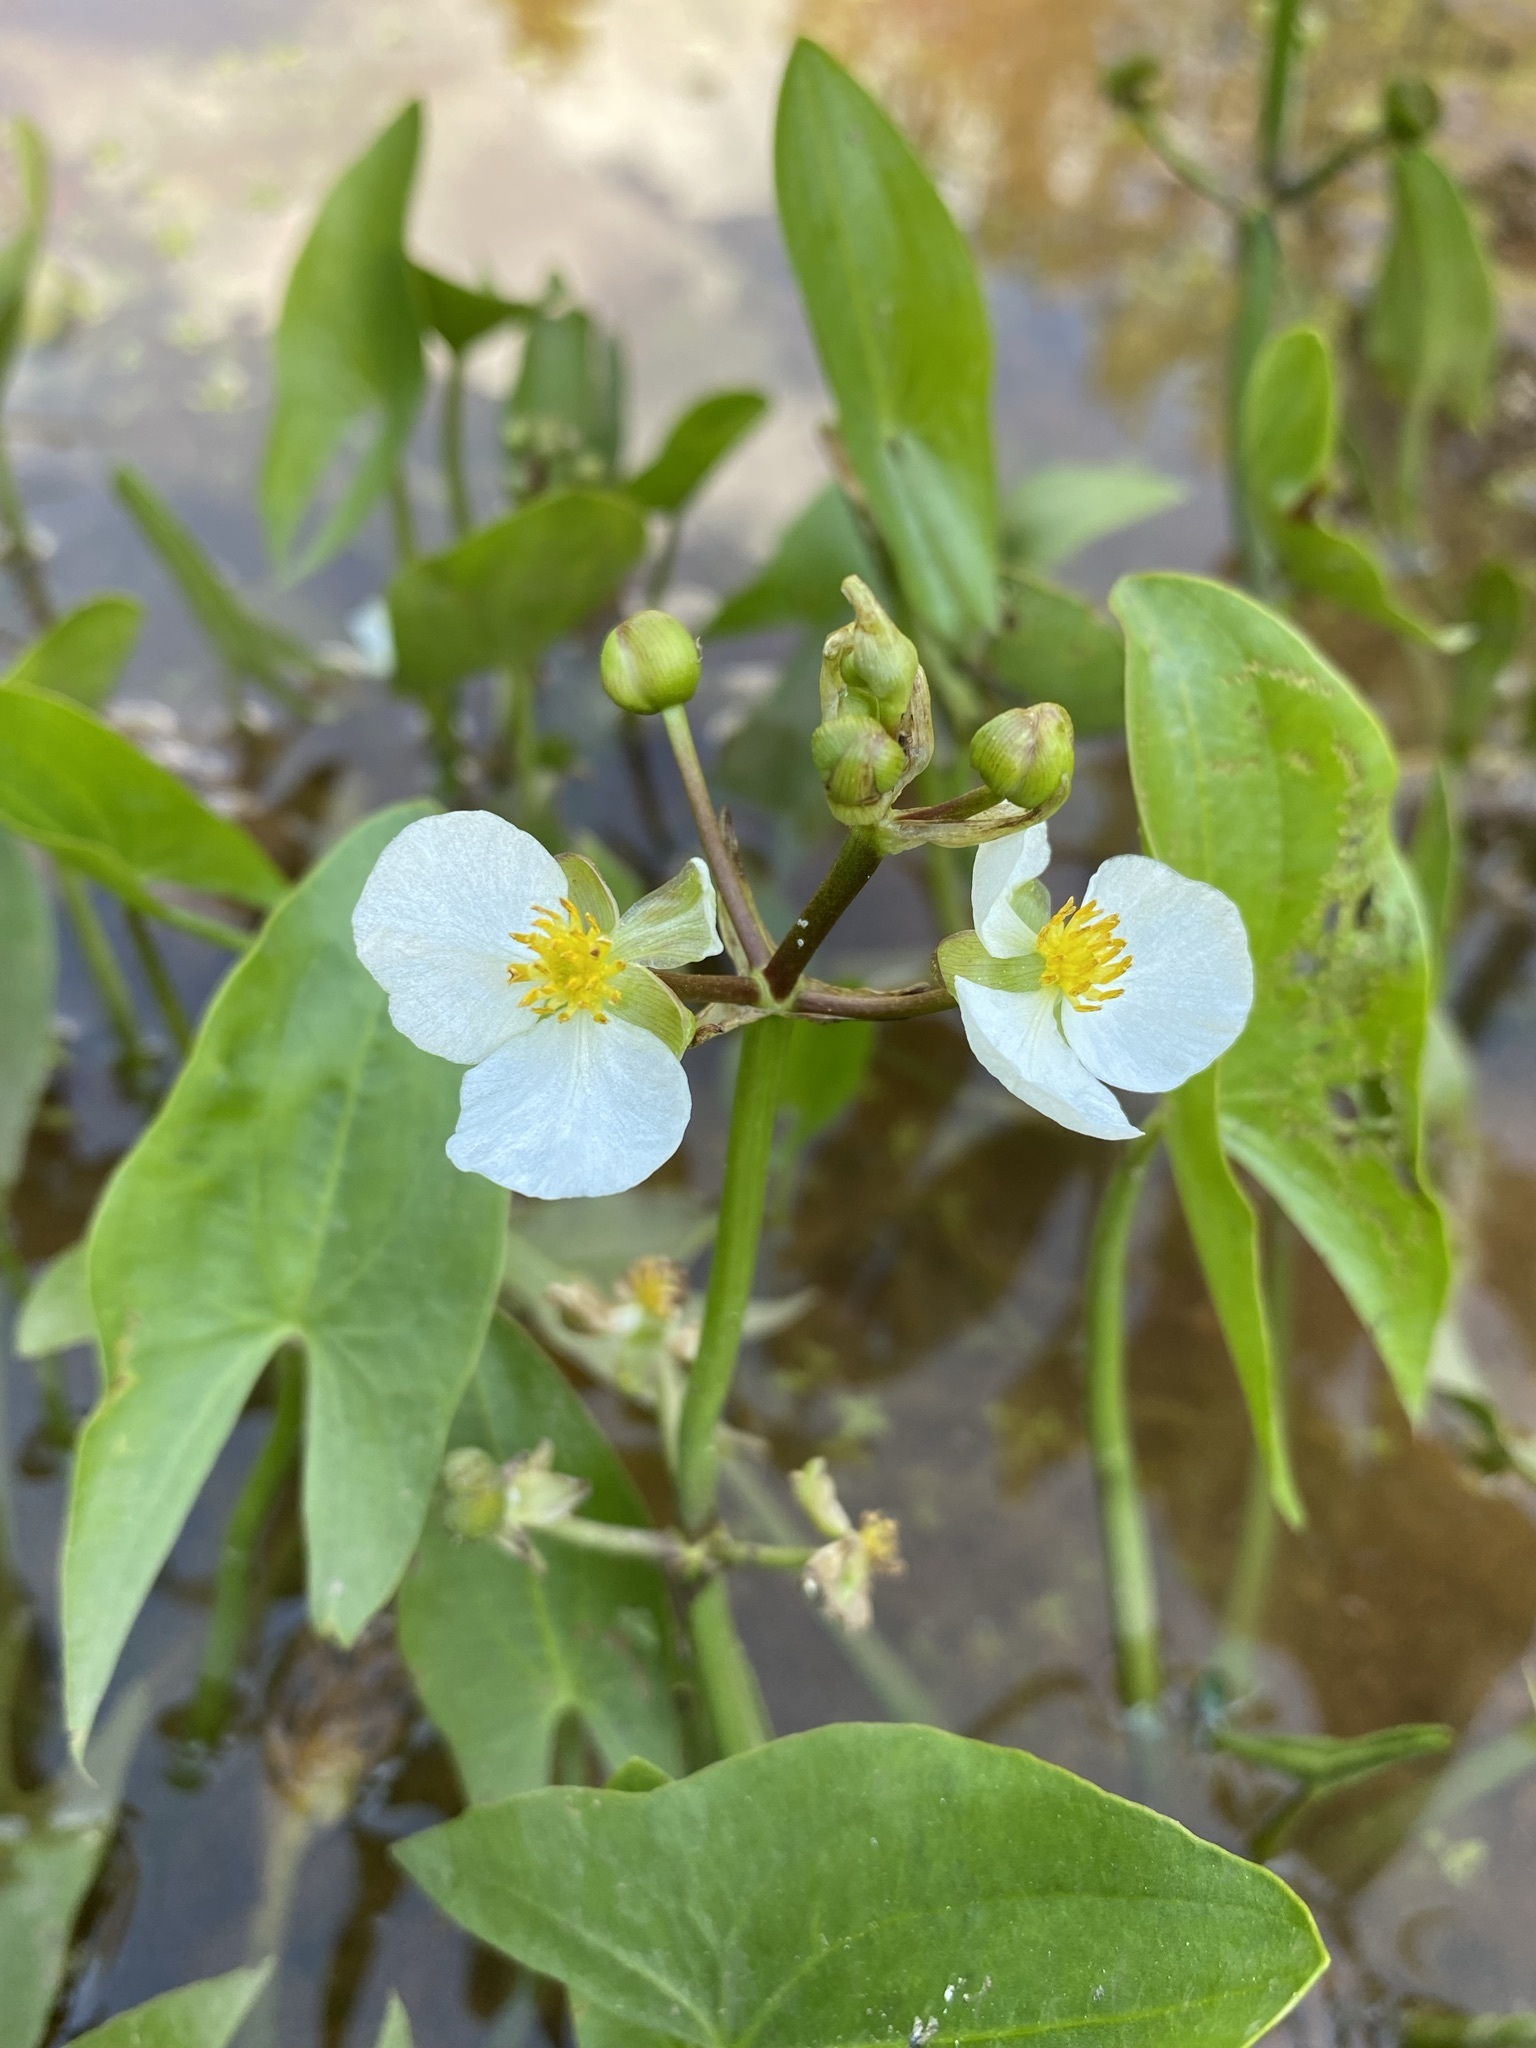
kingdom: Plantae
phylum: Tracheophyta
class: Liliopsida
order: Alismatales
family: Alismataceae
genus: Sagittaria
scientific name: Sagittaria cuneata
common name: Northern arrowhead
